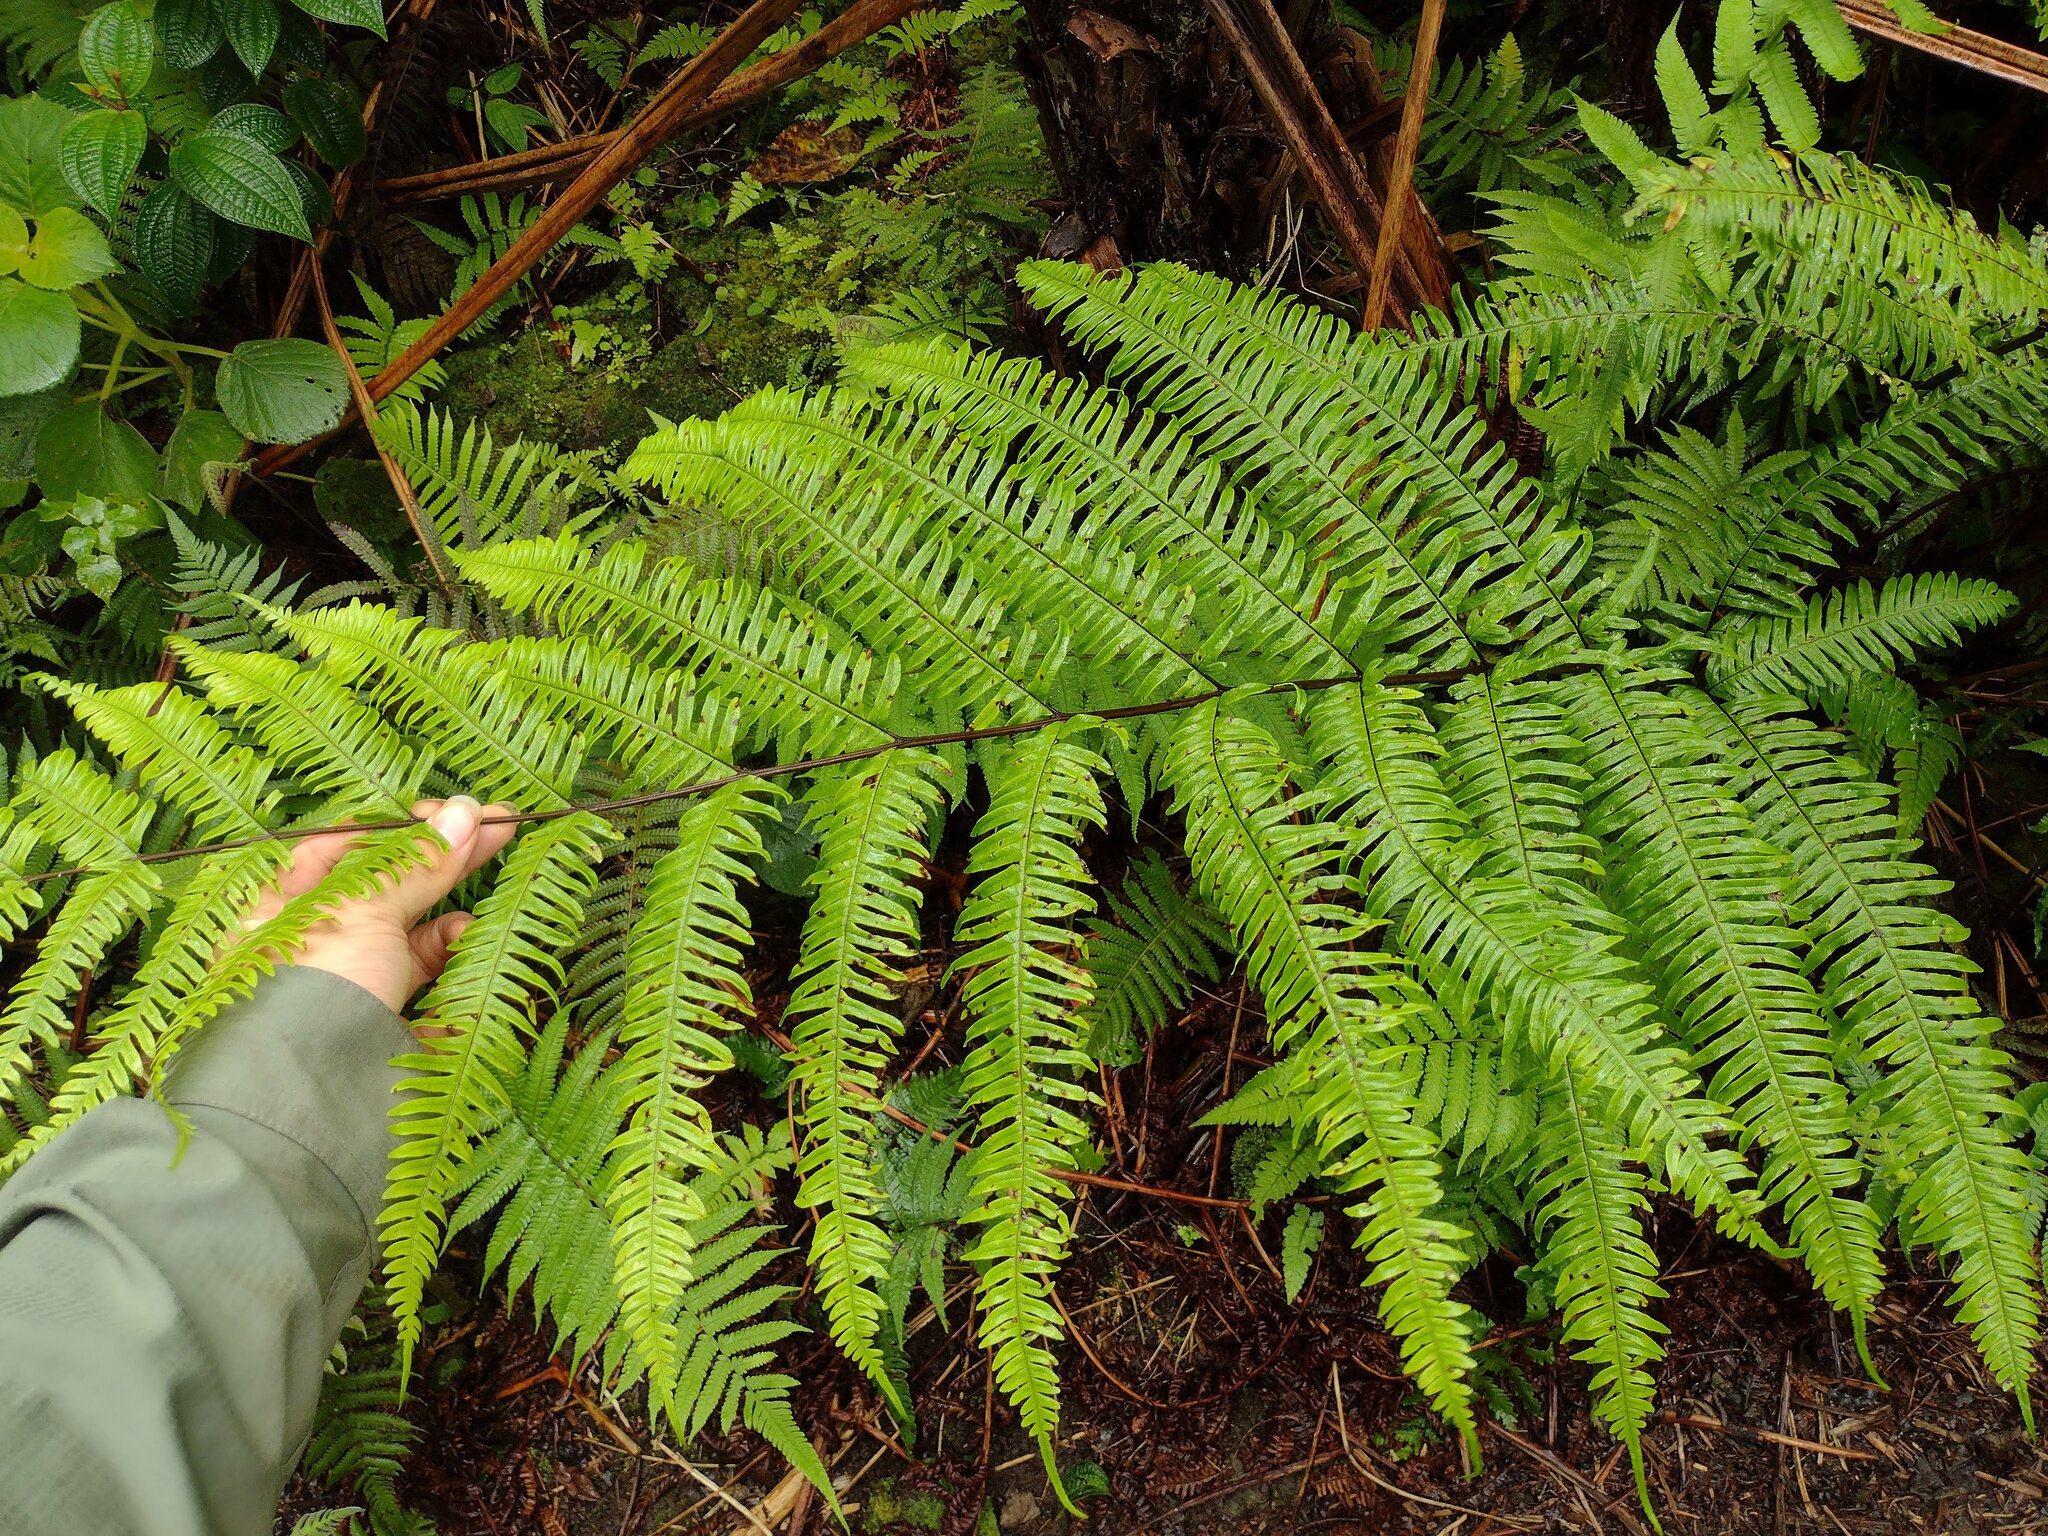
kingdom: Plantae
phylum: Tracheophyta
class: Polypodiopsida
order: Polypodiales
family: Pteridaceae
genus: Pteris
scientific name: Pteris terminalis
